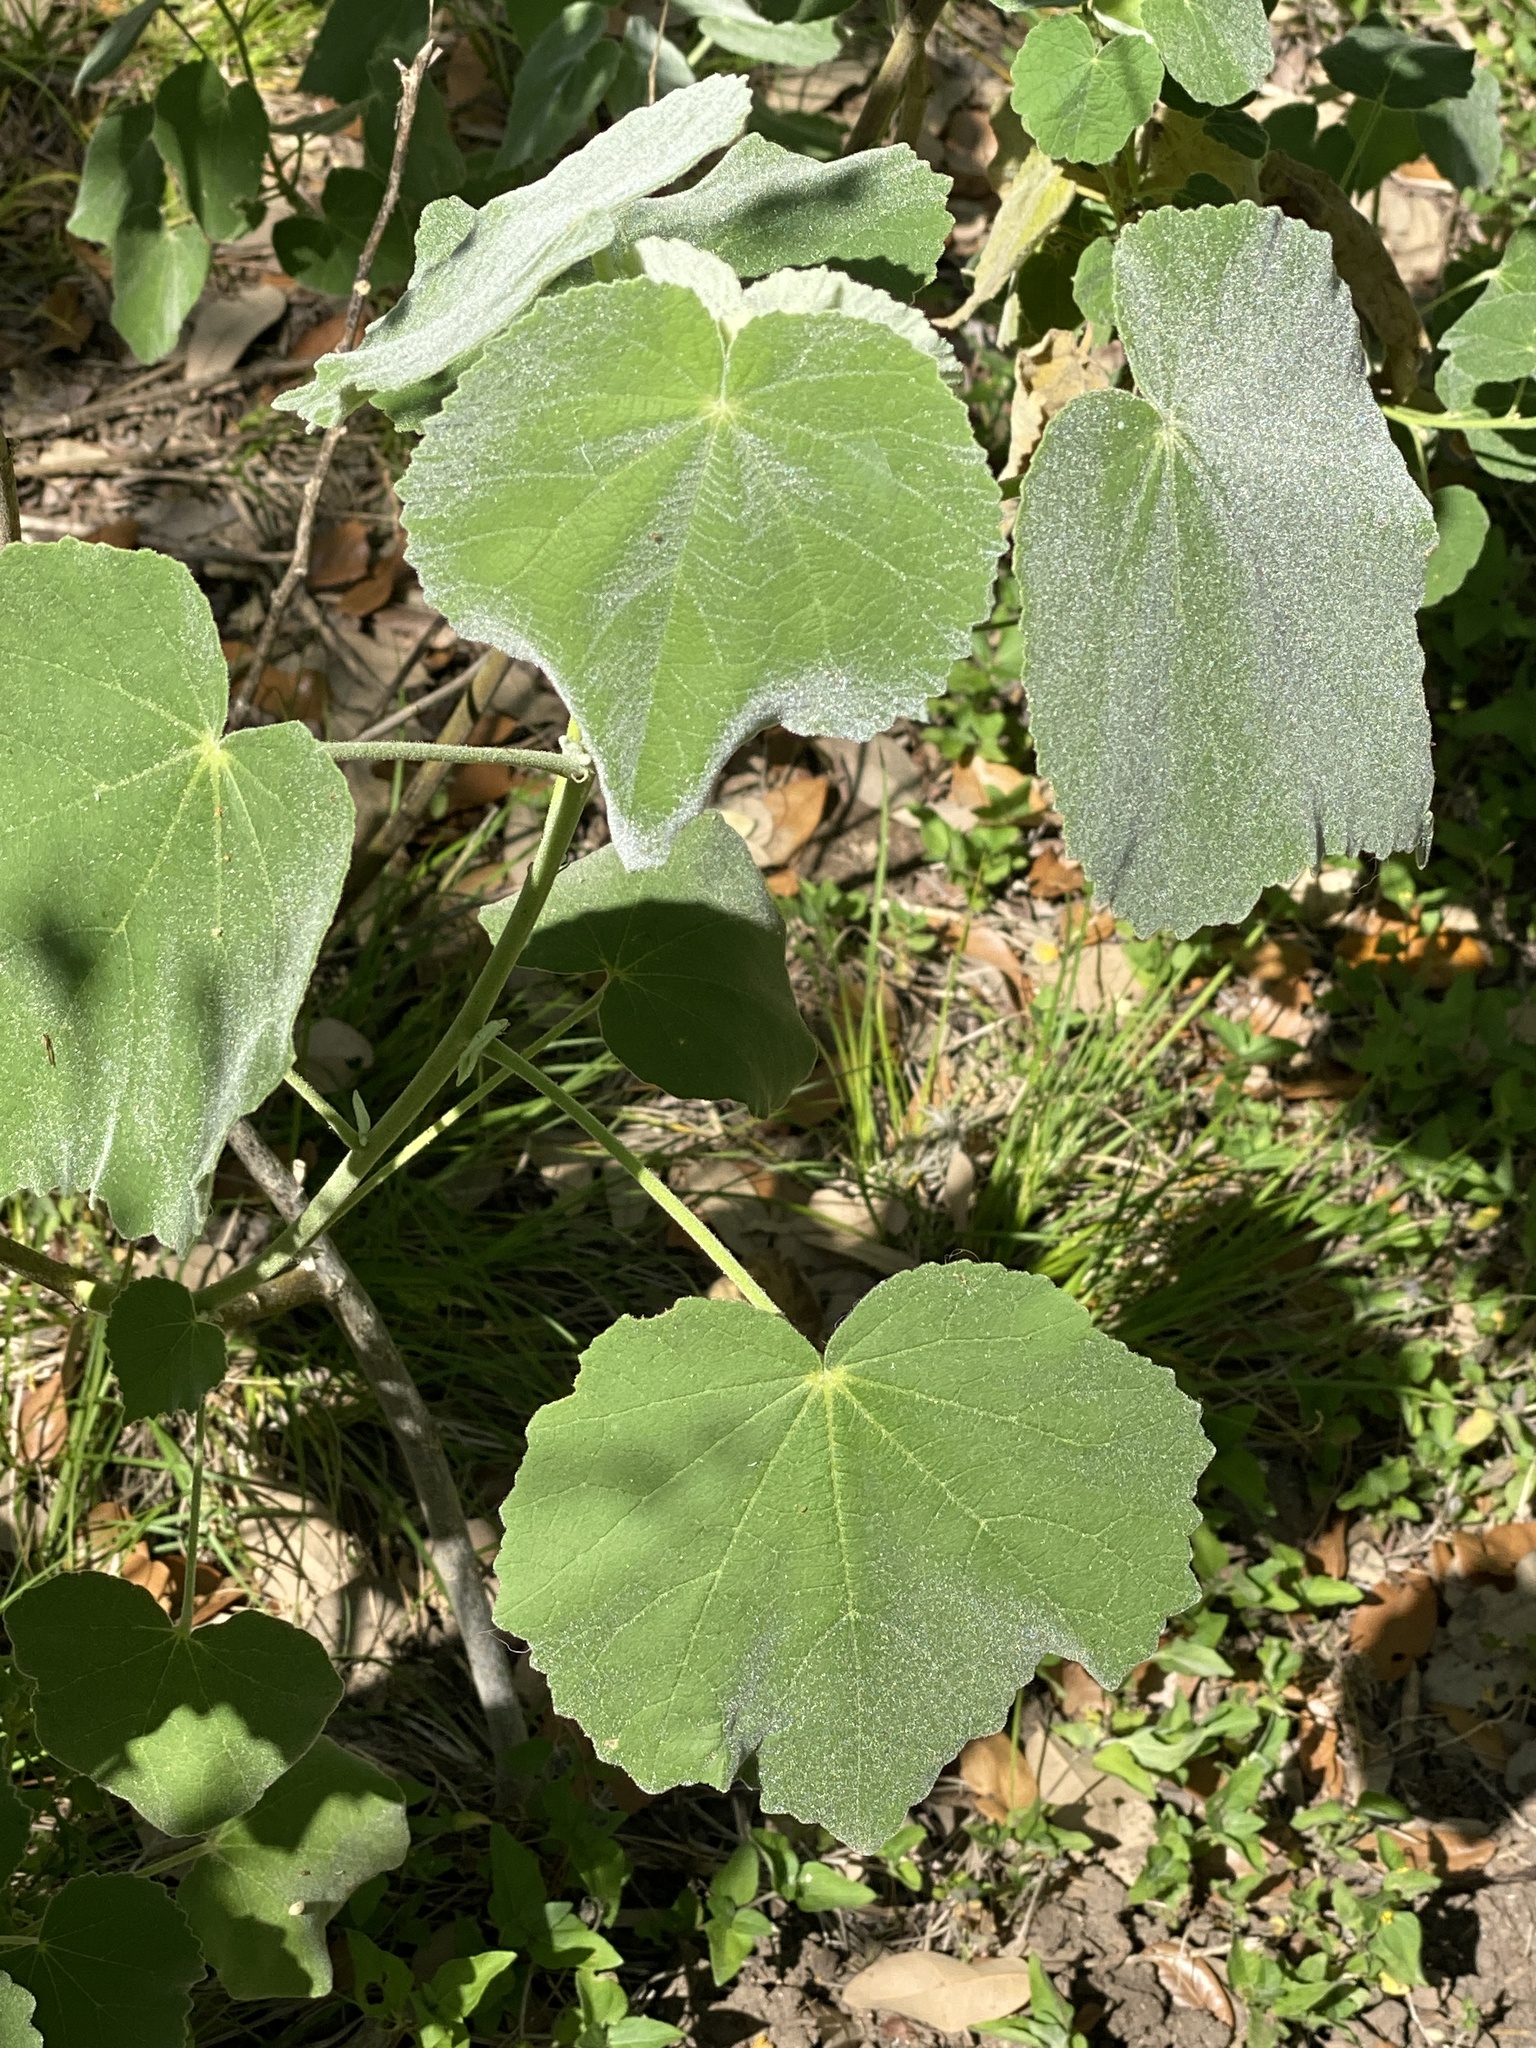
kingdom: Plantae
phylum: Tracheophyta
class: Magnoliopsida
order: Malvales
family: Malvaceae
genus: Allowissadula
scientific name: Allowissadula holosericea
